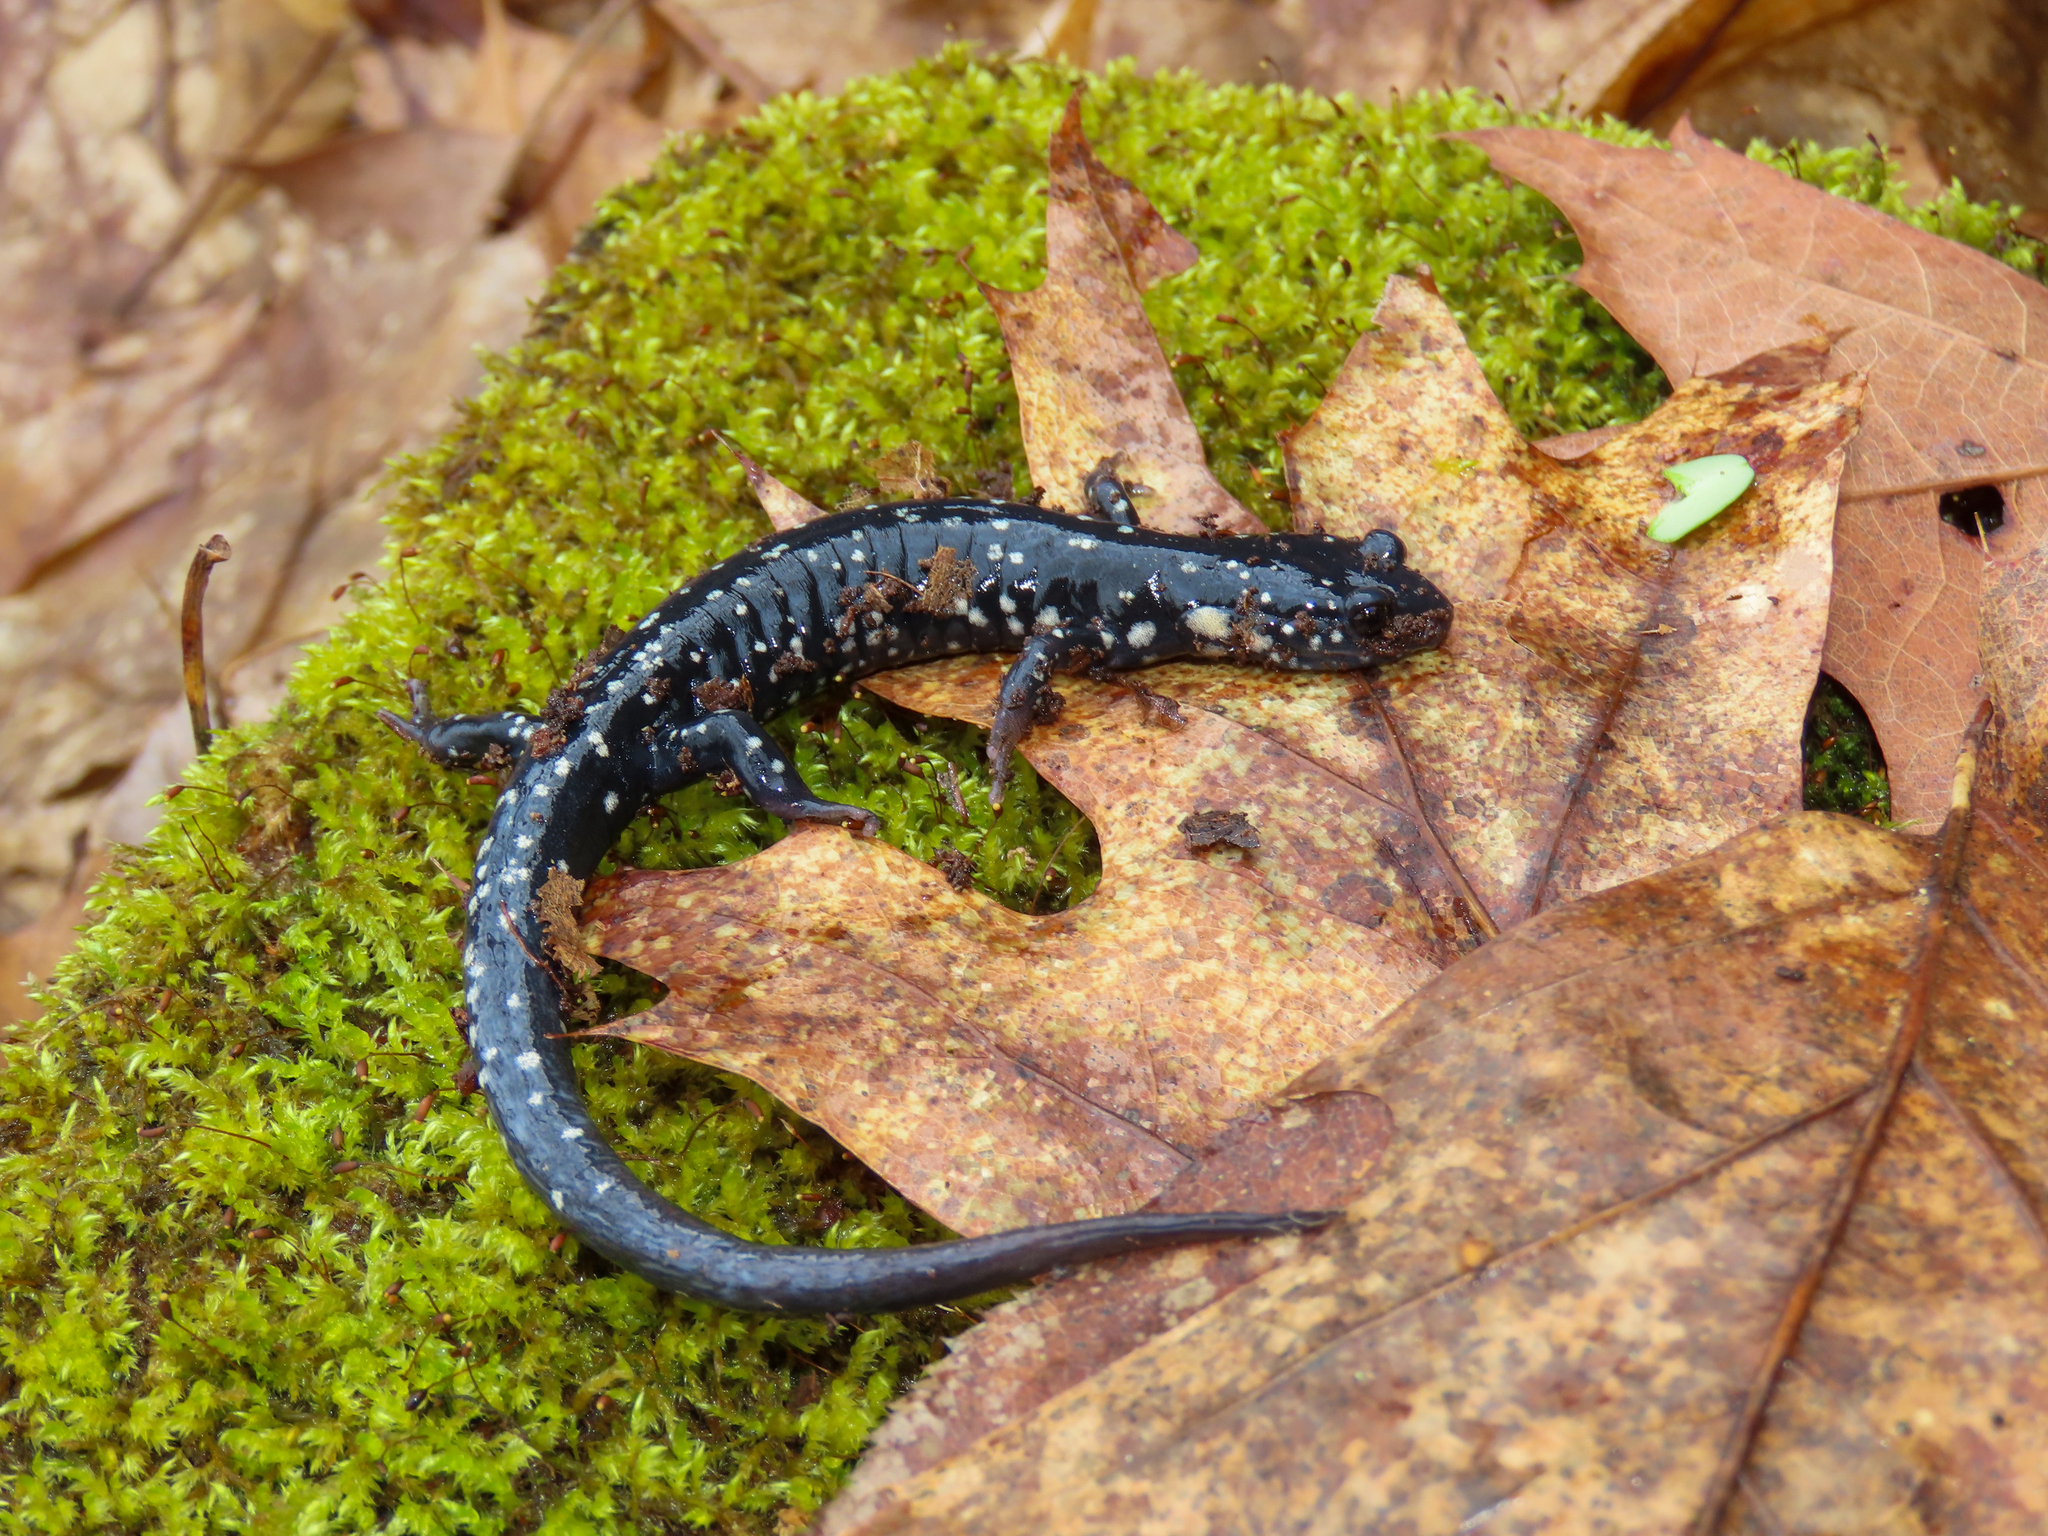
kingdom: Animalia
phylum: Chordata
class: Amphibia
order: Caudata
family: Plethodontidae
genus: Plethodon
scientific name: Plethodon glutinosus
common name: Northern slimy salamander
